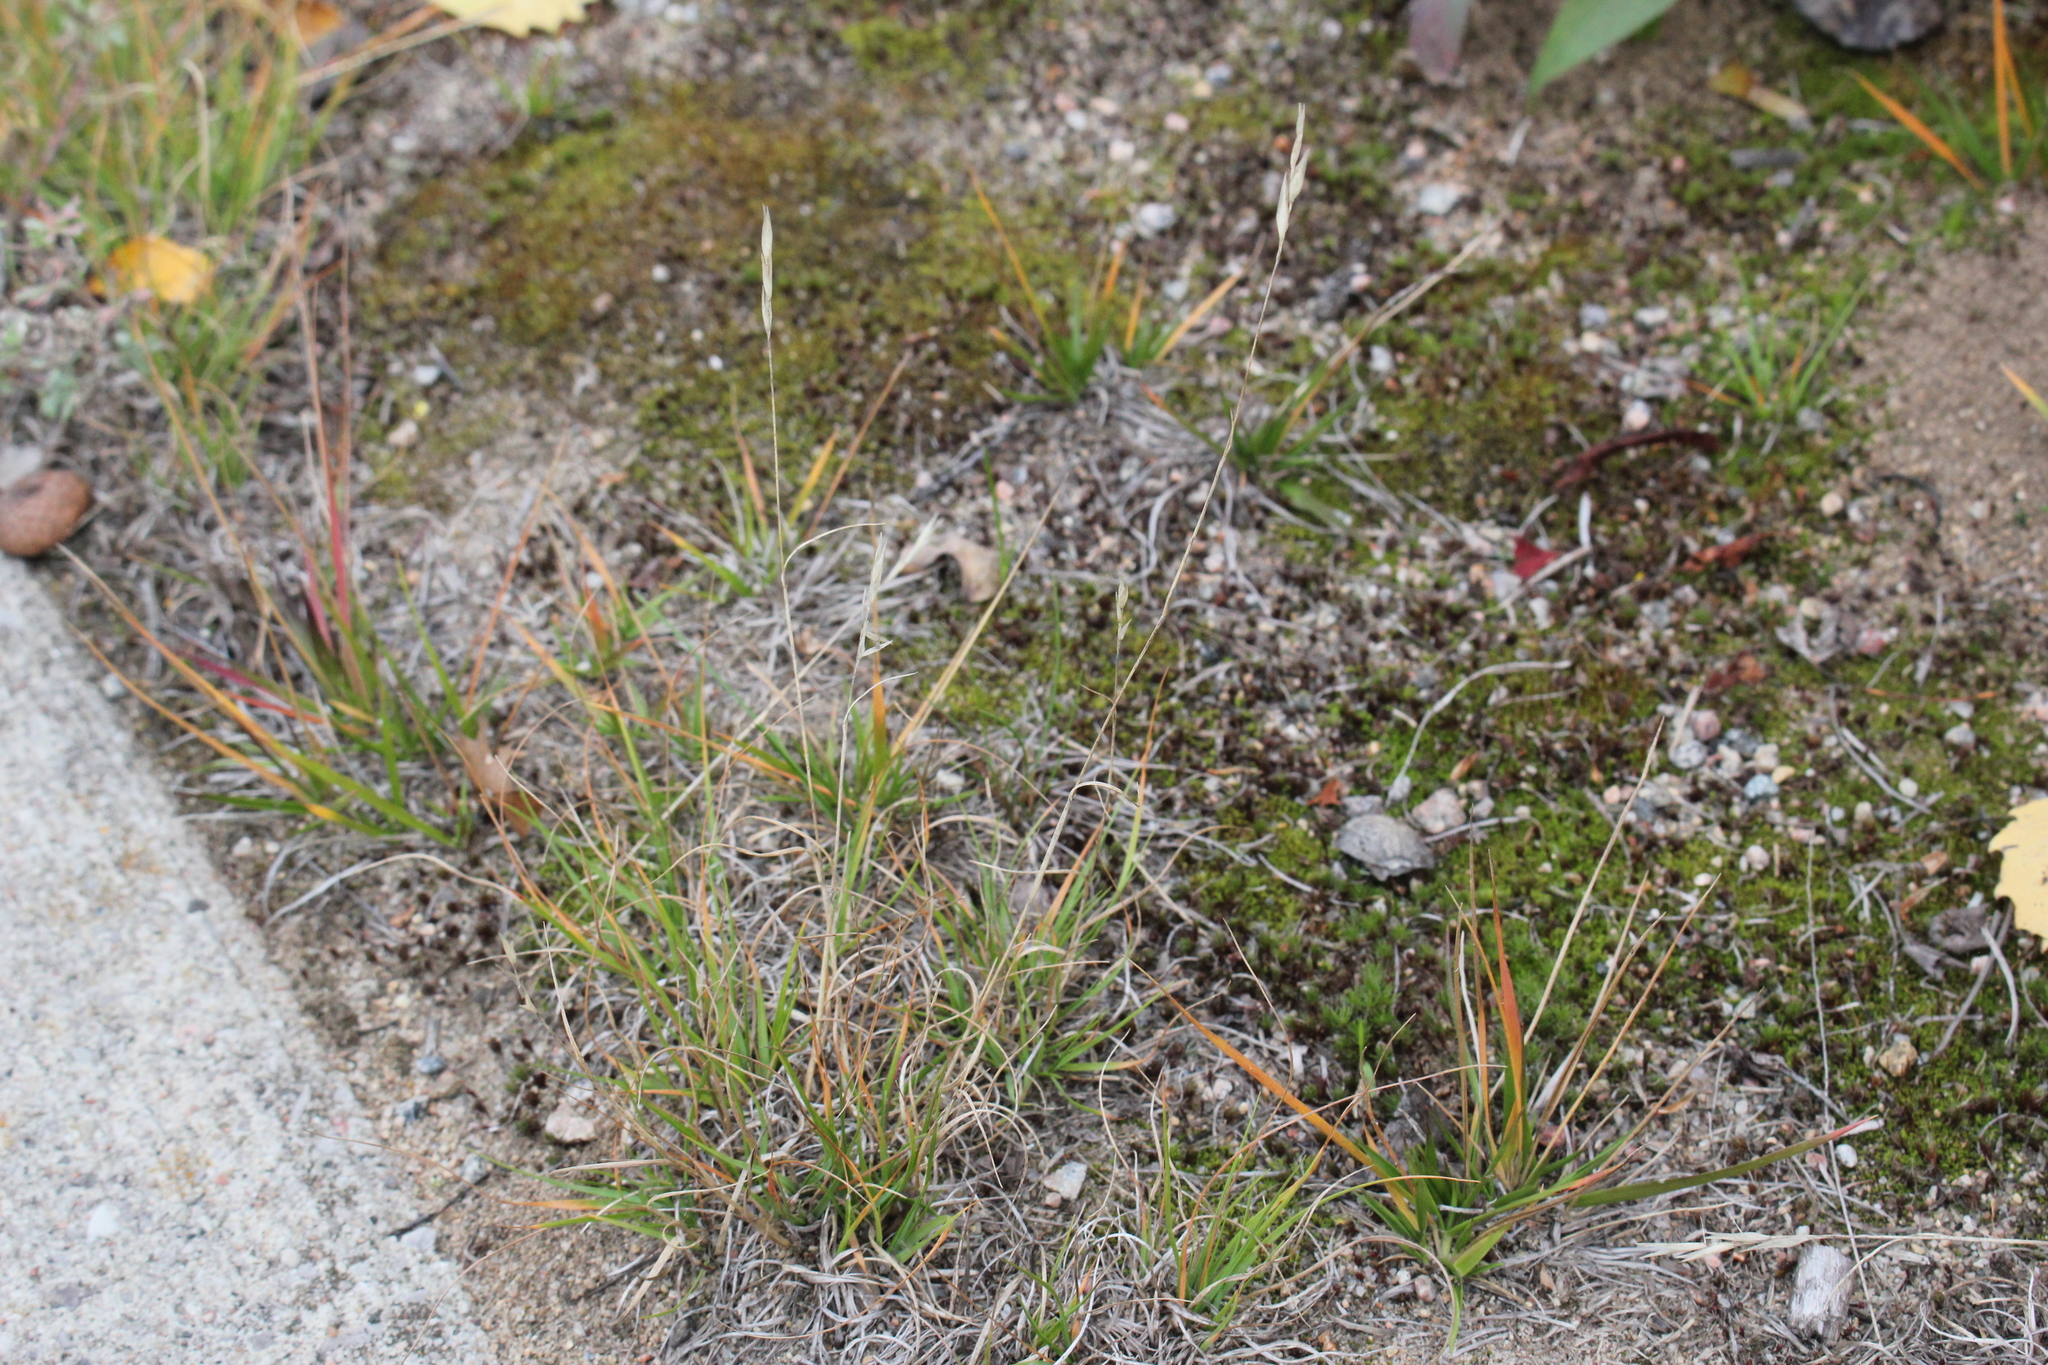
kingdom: Plantae
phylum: Tracheophyta
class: Liliopsida
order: Poales
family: Poaceae
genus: Danthonia
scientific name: Danthonia spicata
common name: Common wild oatgrass
